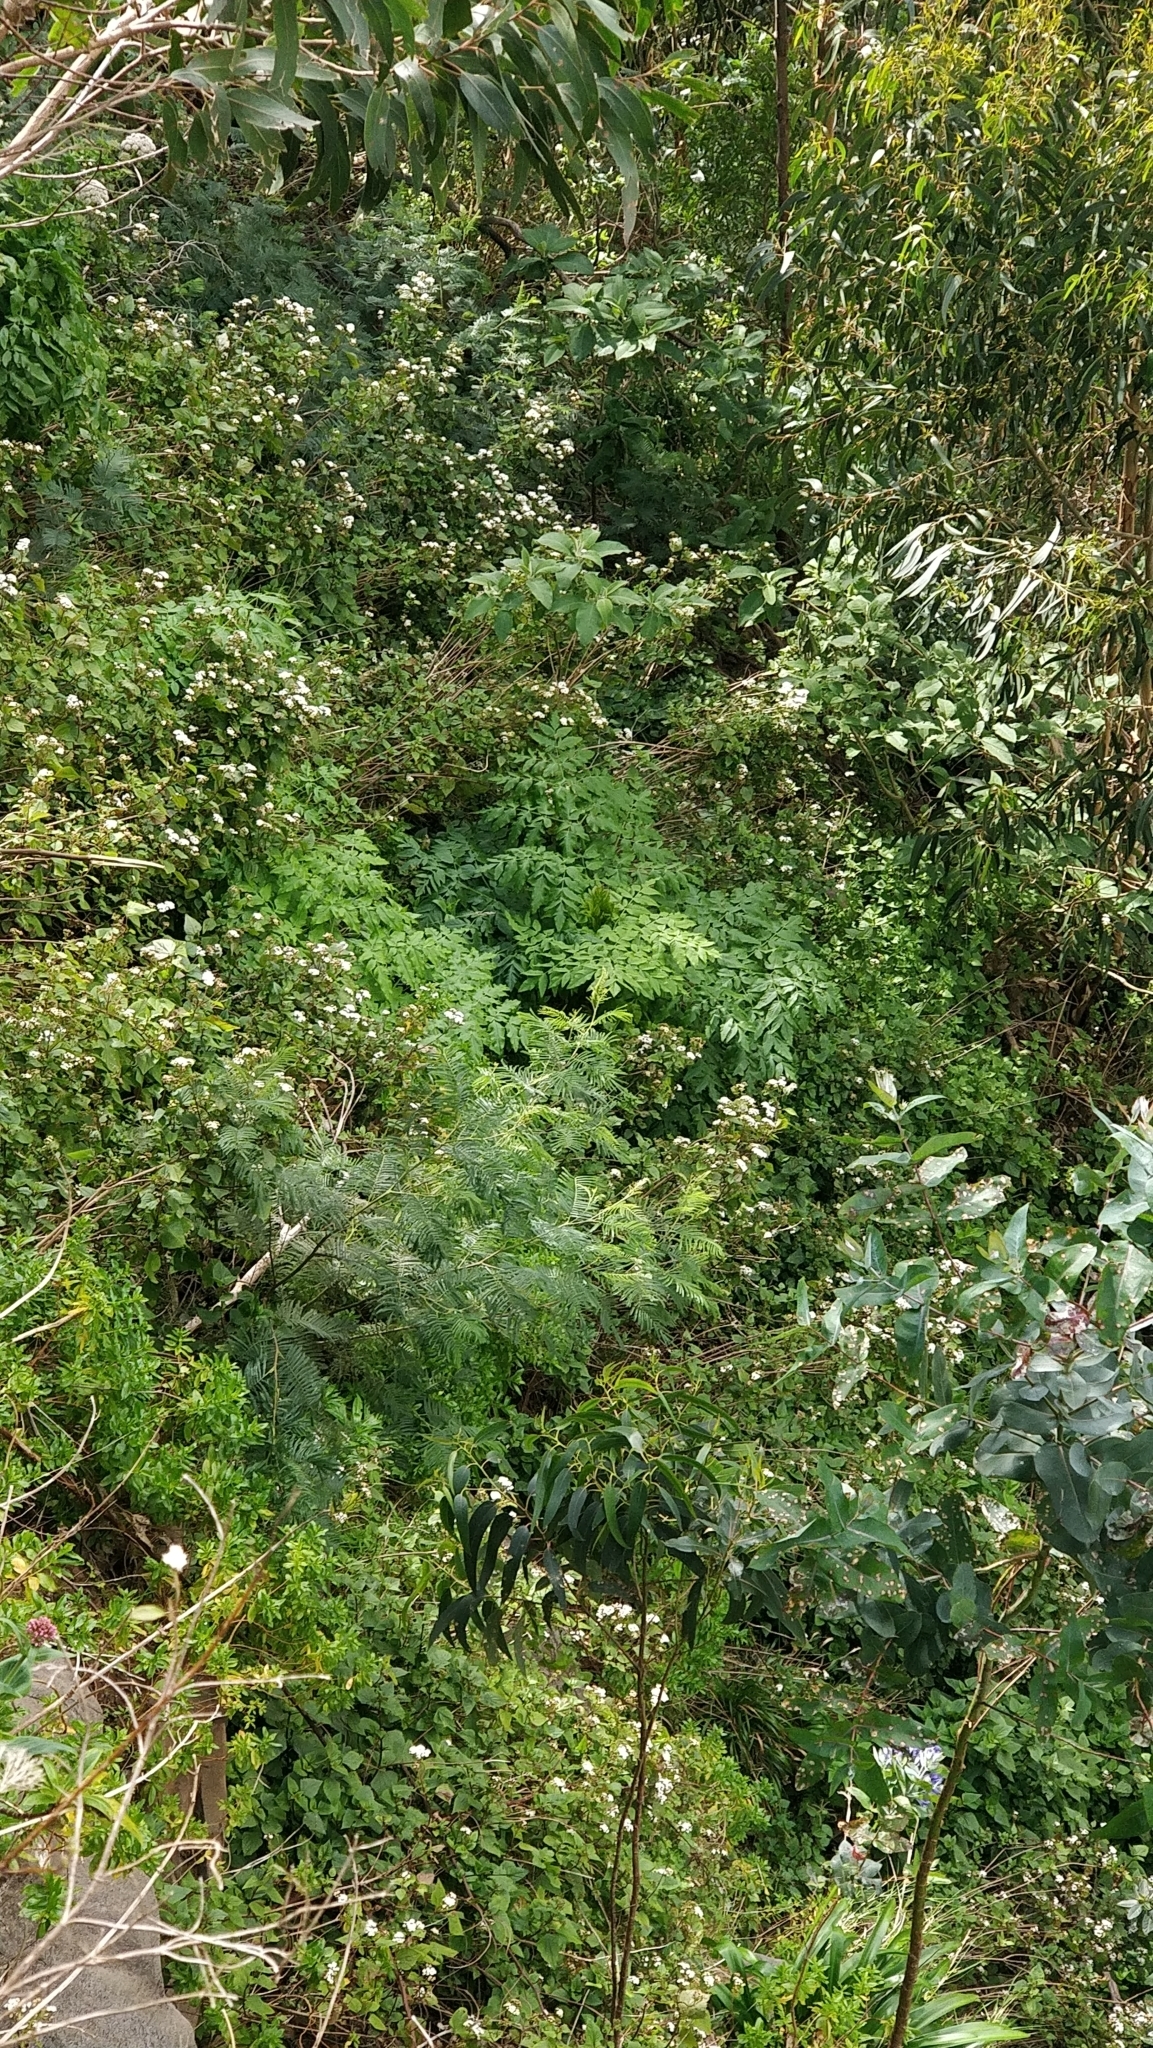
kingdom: Plantae
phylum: Tracheophyta
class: Magnoliopsida
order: Apiales
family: Apiaceae
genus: Daucus
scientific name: Daucus decipiens
